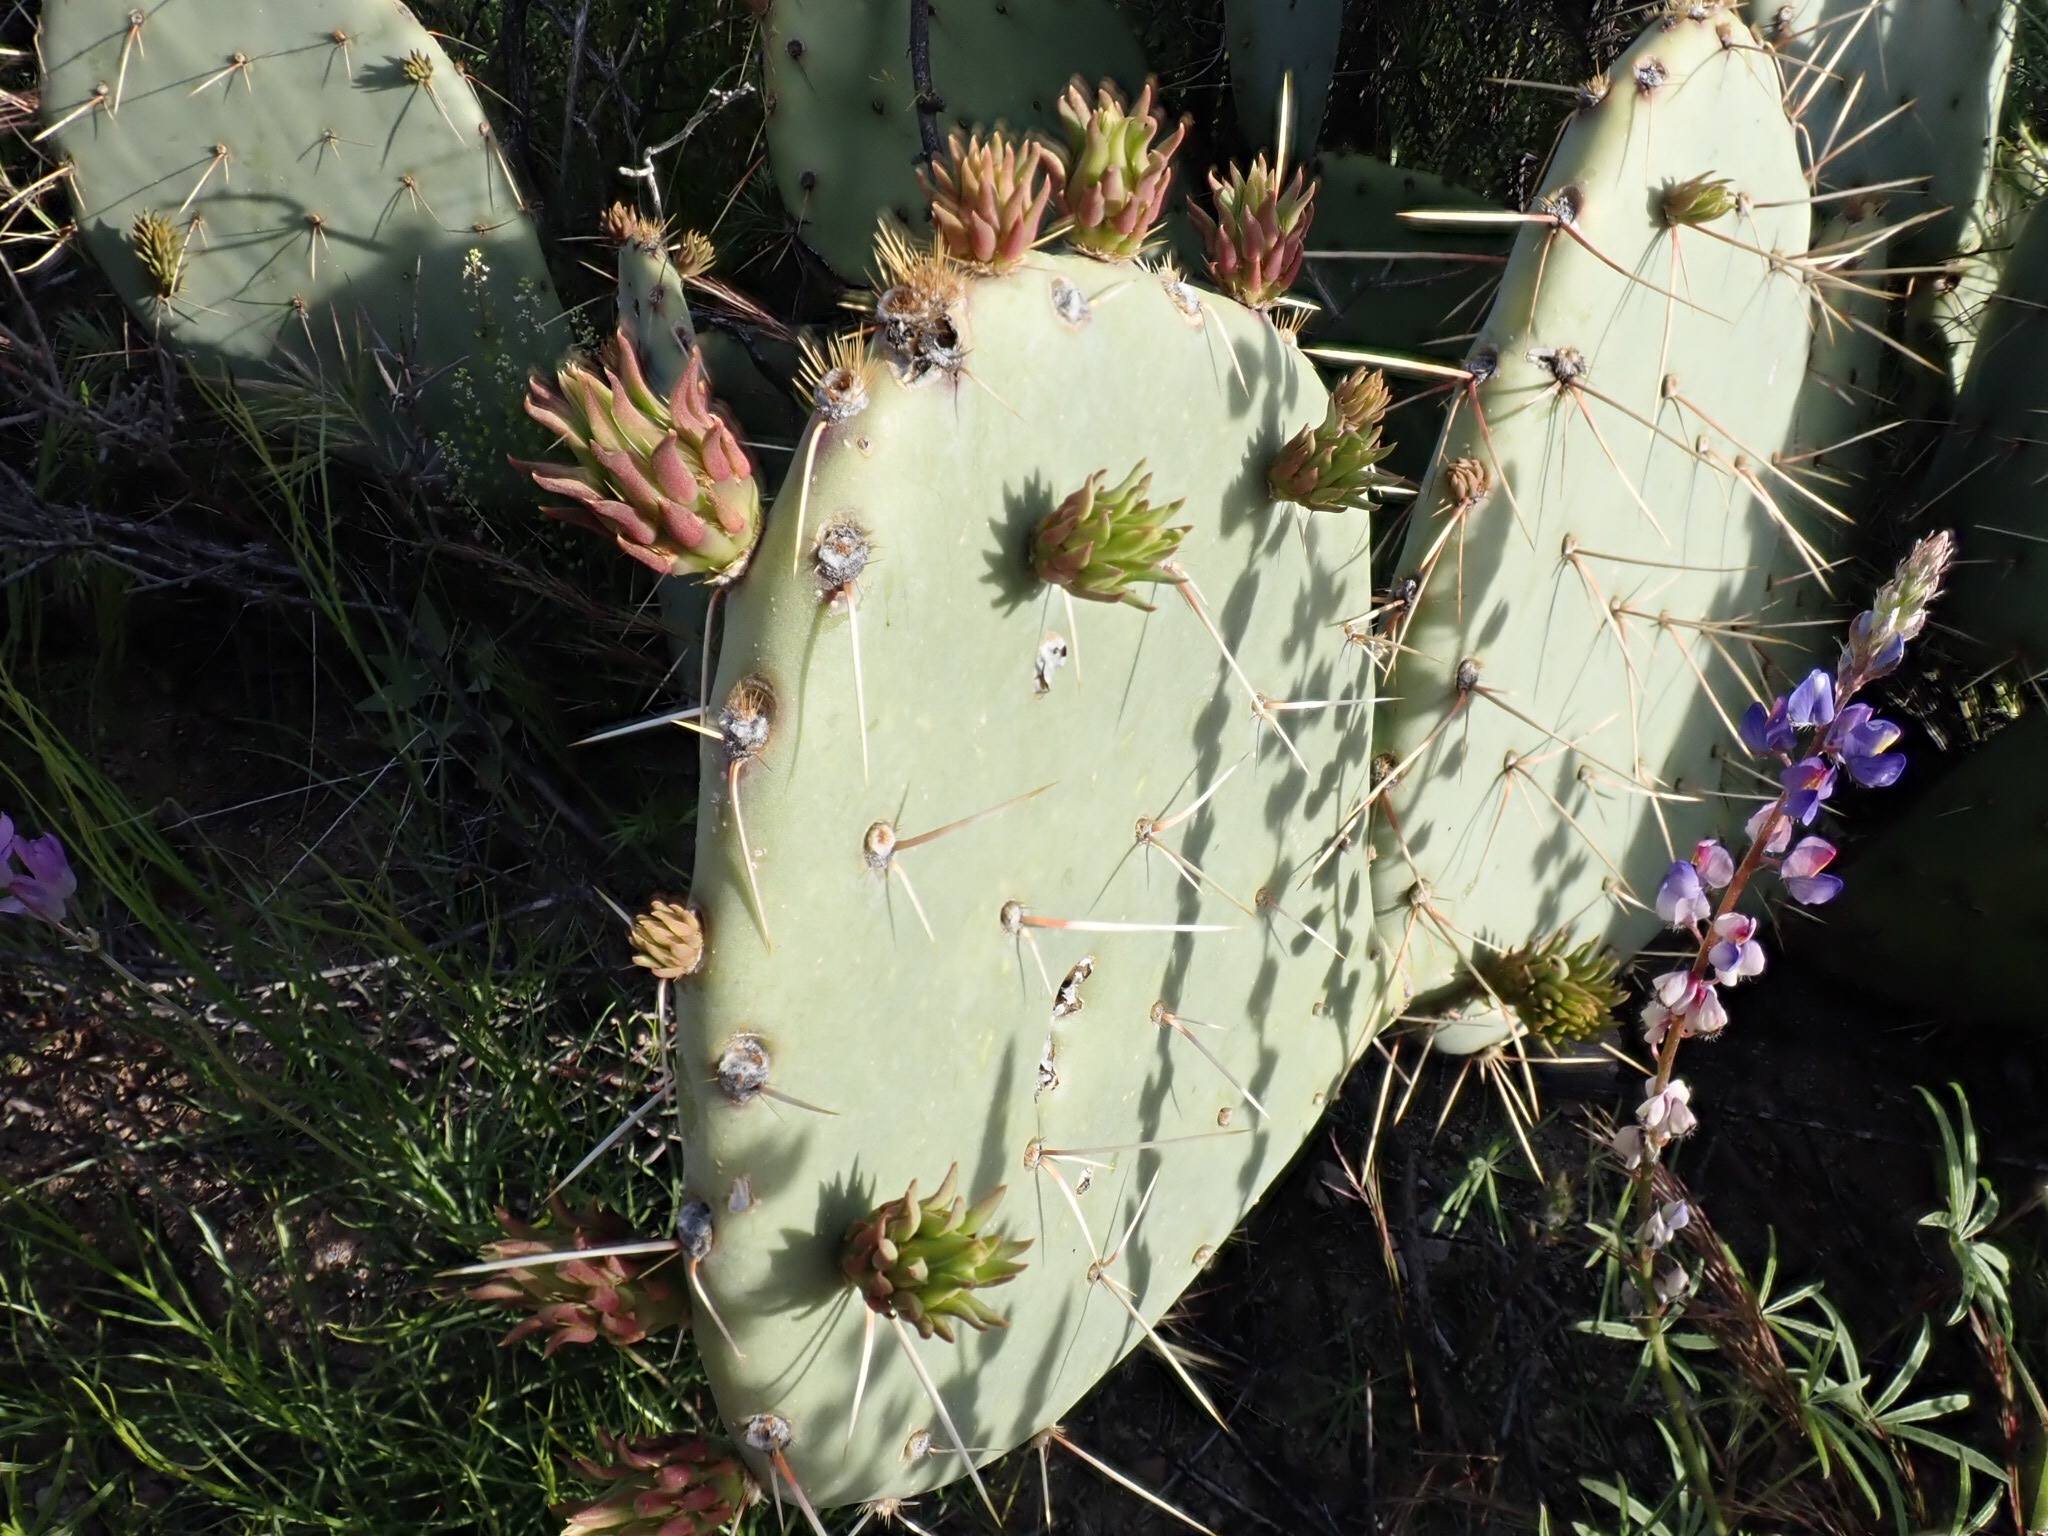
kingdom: Plantae
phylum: Tracheophyta
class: Magnoliopsida
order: Caryophyllales
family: Cactaceae
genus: Opuntia
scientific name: Opuntia engelmannii
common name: Cactus-apple
